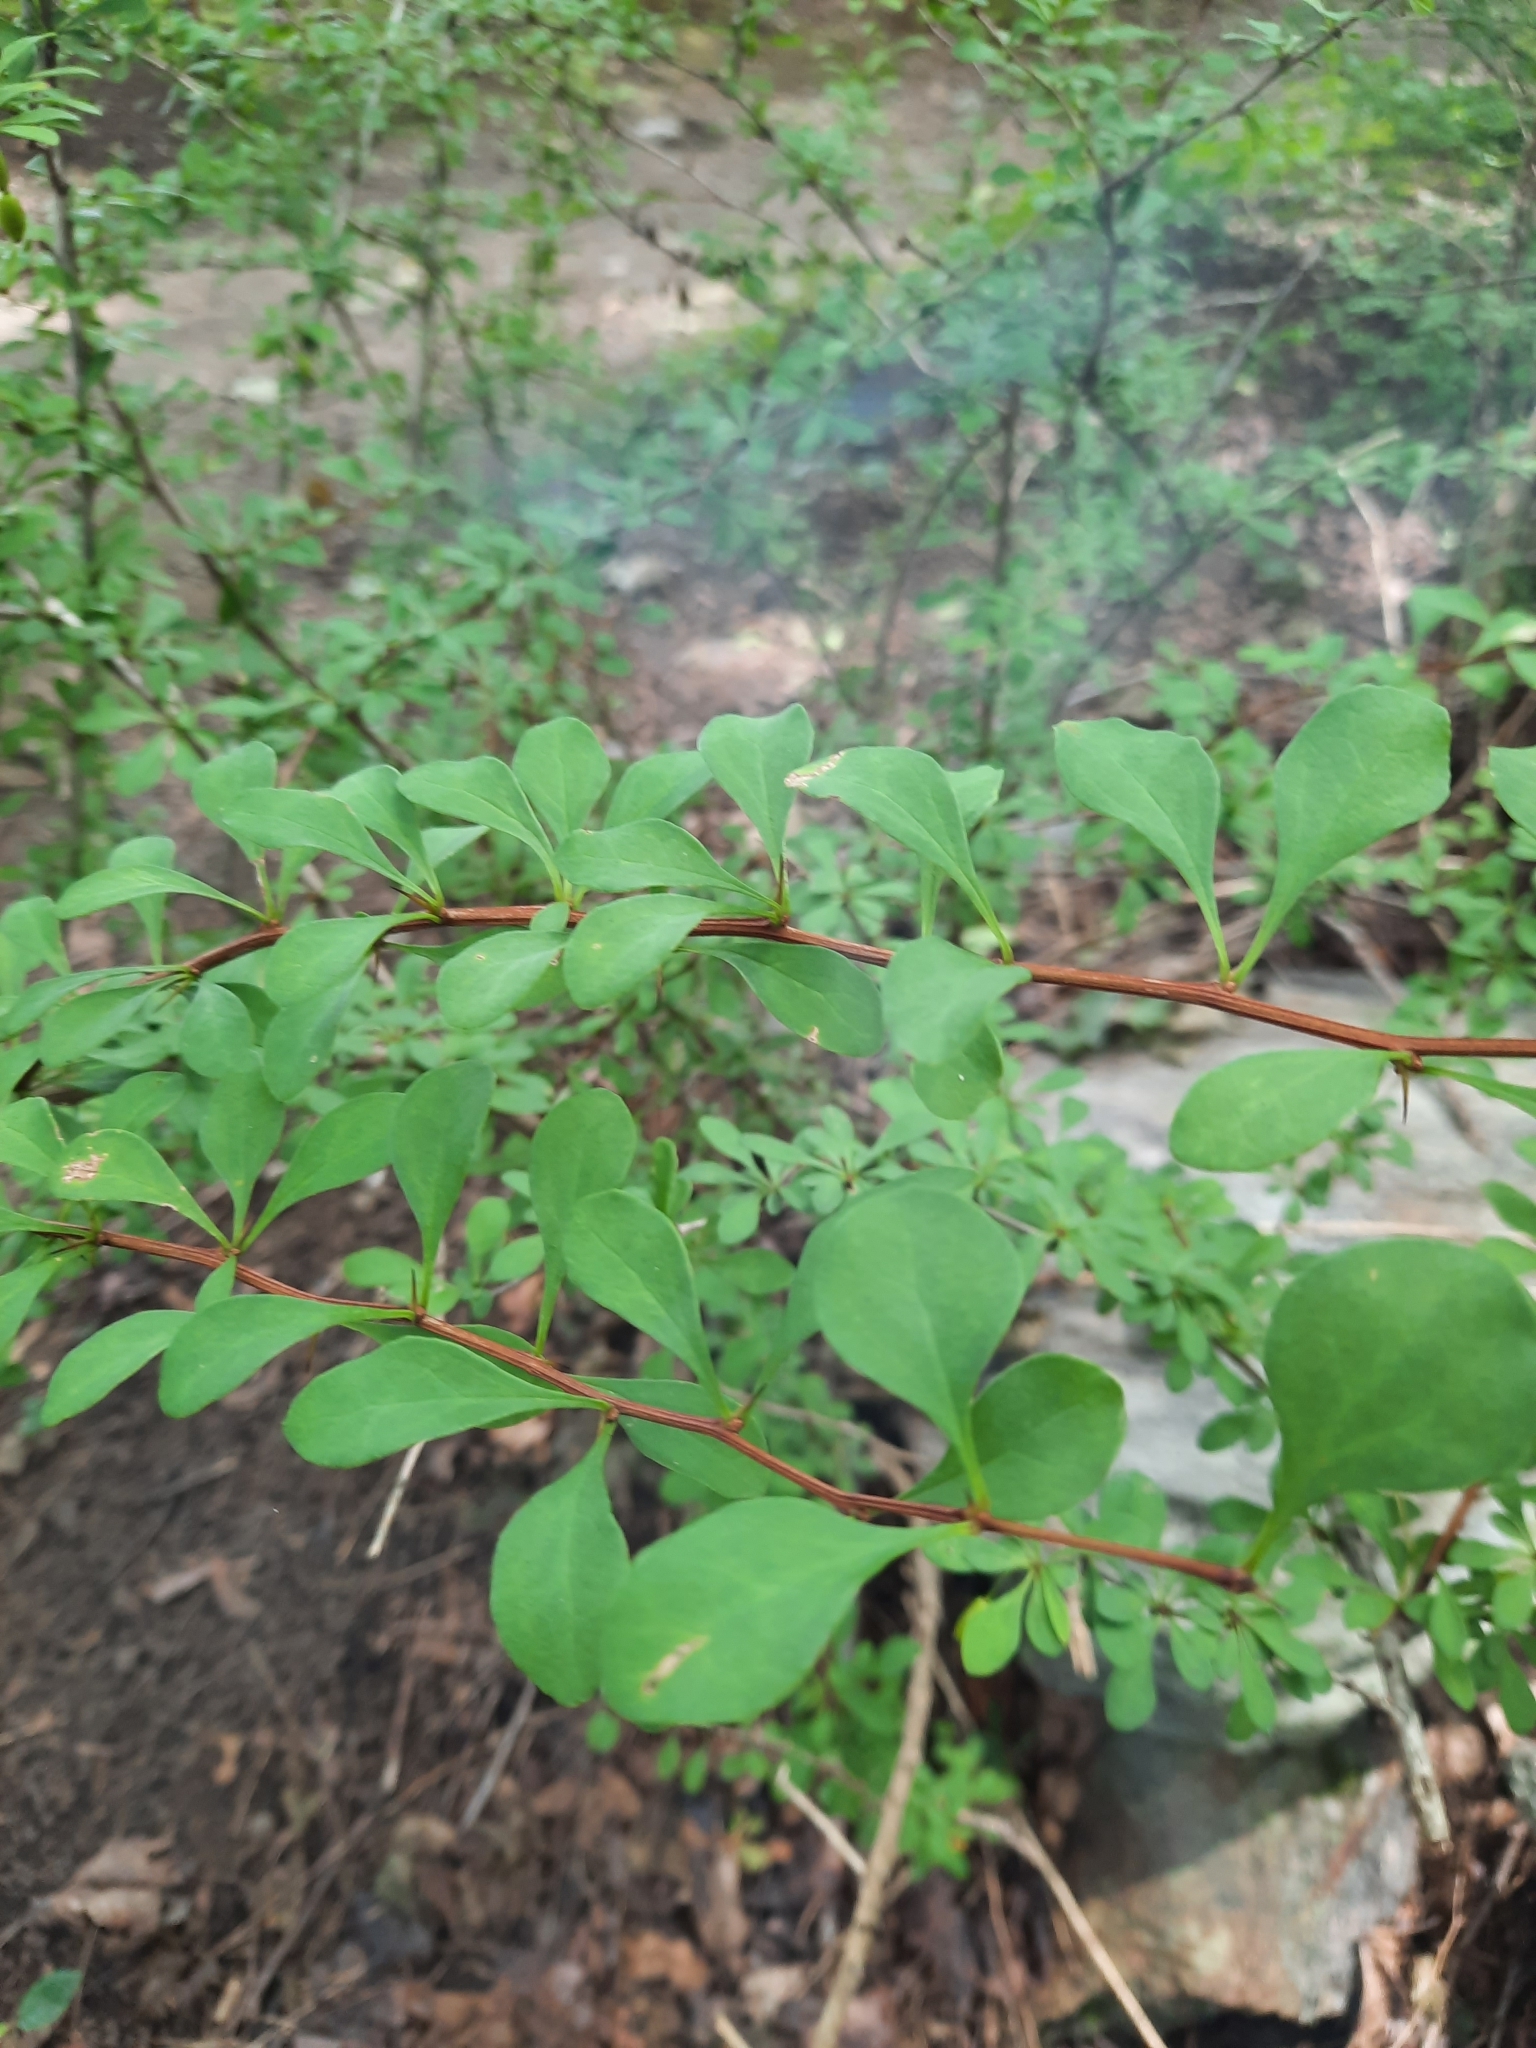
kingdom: Plantae
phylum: Tracheophyta
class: Magnoliopsida
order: Ranunculales
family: Berberidaceae
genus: Berberis
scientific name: Berberis thunbergii
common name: Japanese barberry
